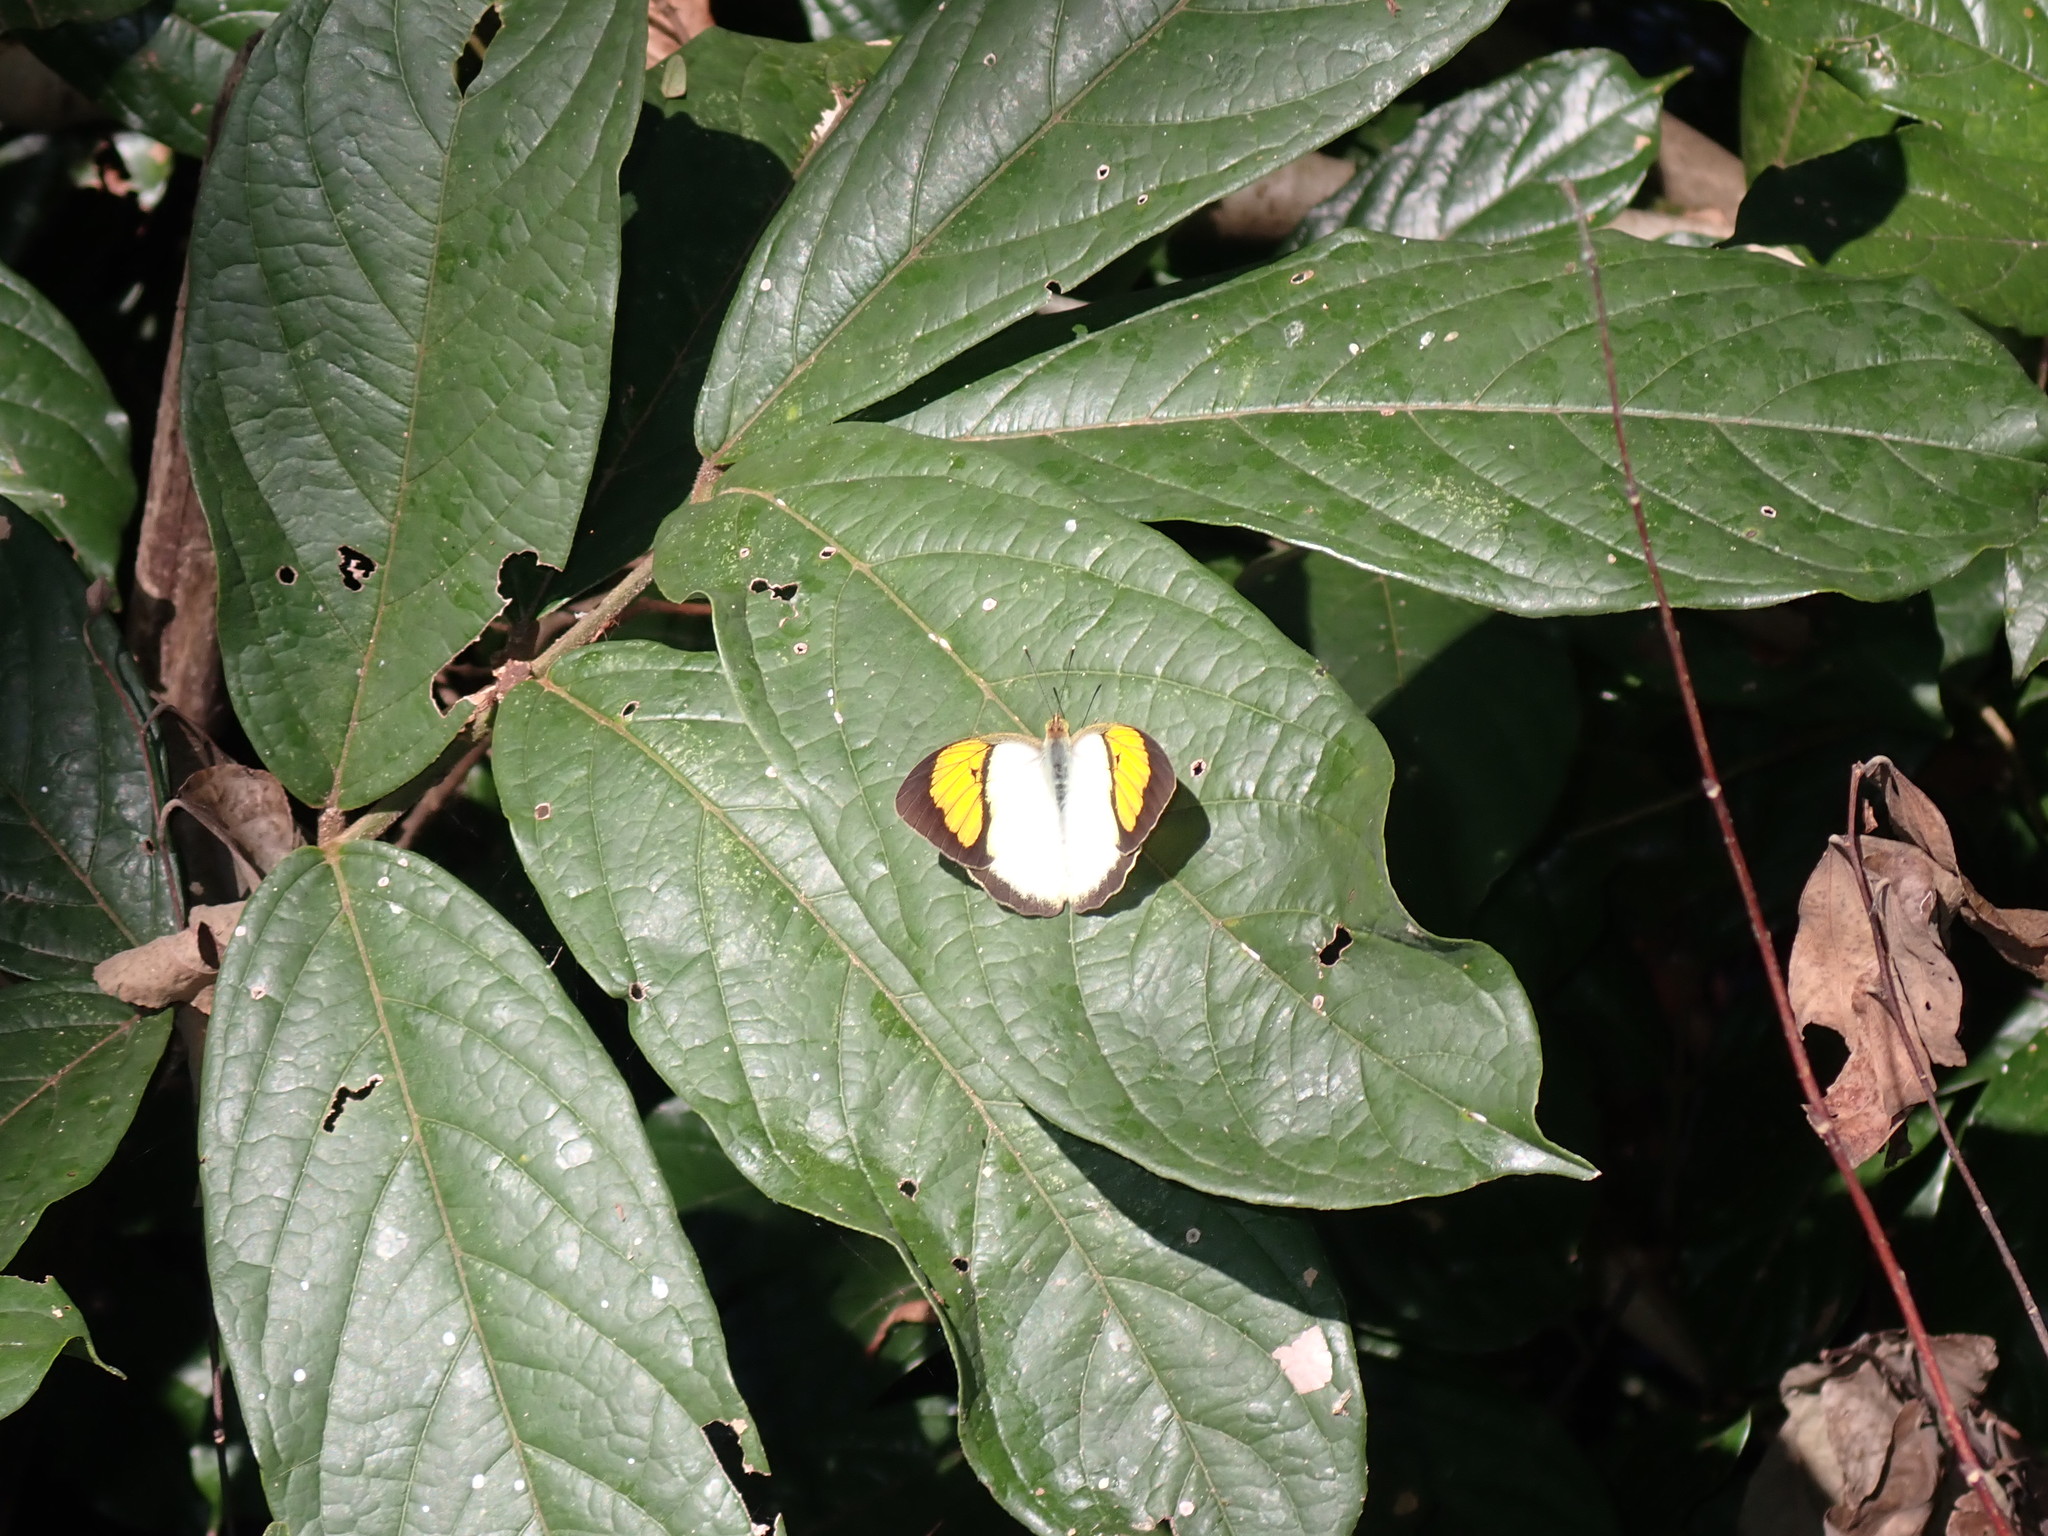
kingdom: Animalia
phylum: Arthropoda
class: Insecta
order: Lepidoptera
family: Pieridae
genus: Ixias
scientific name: Ixias pyrene
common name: Yellow orange tip
